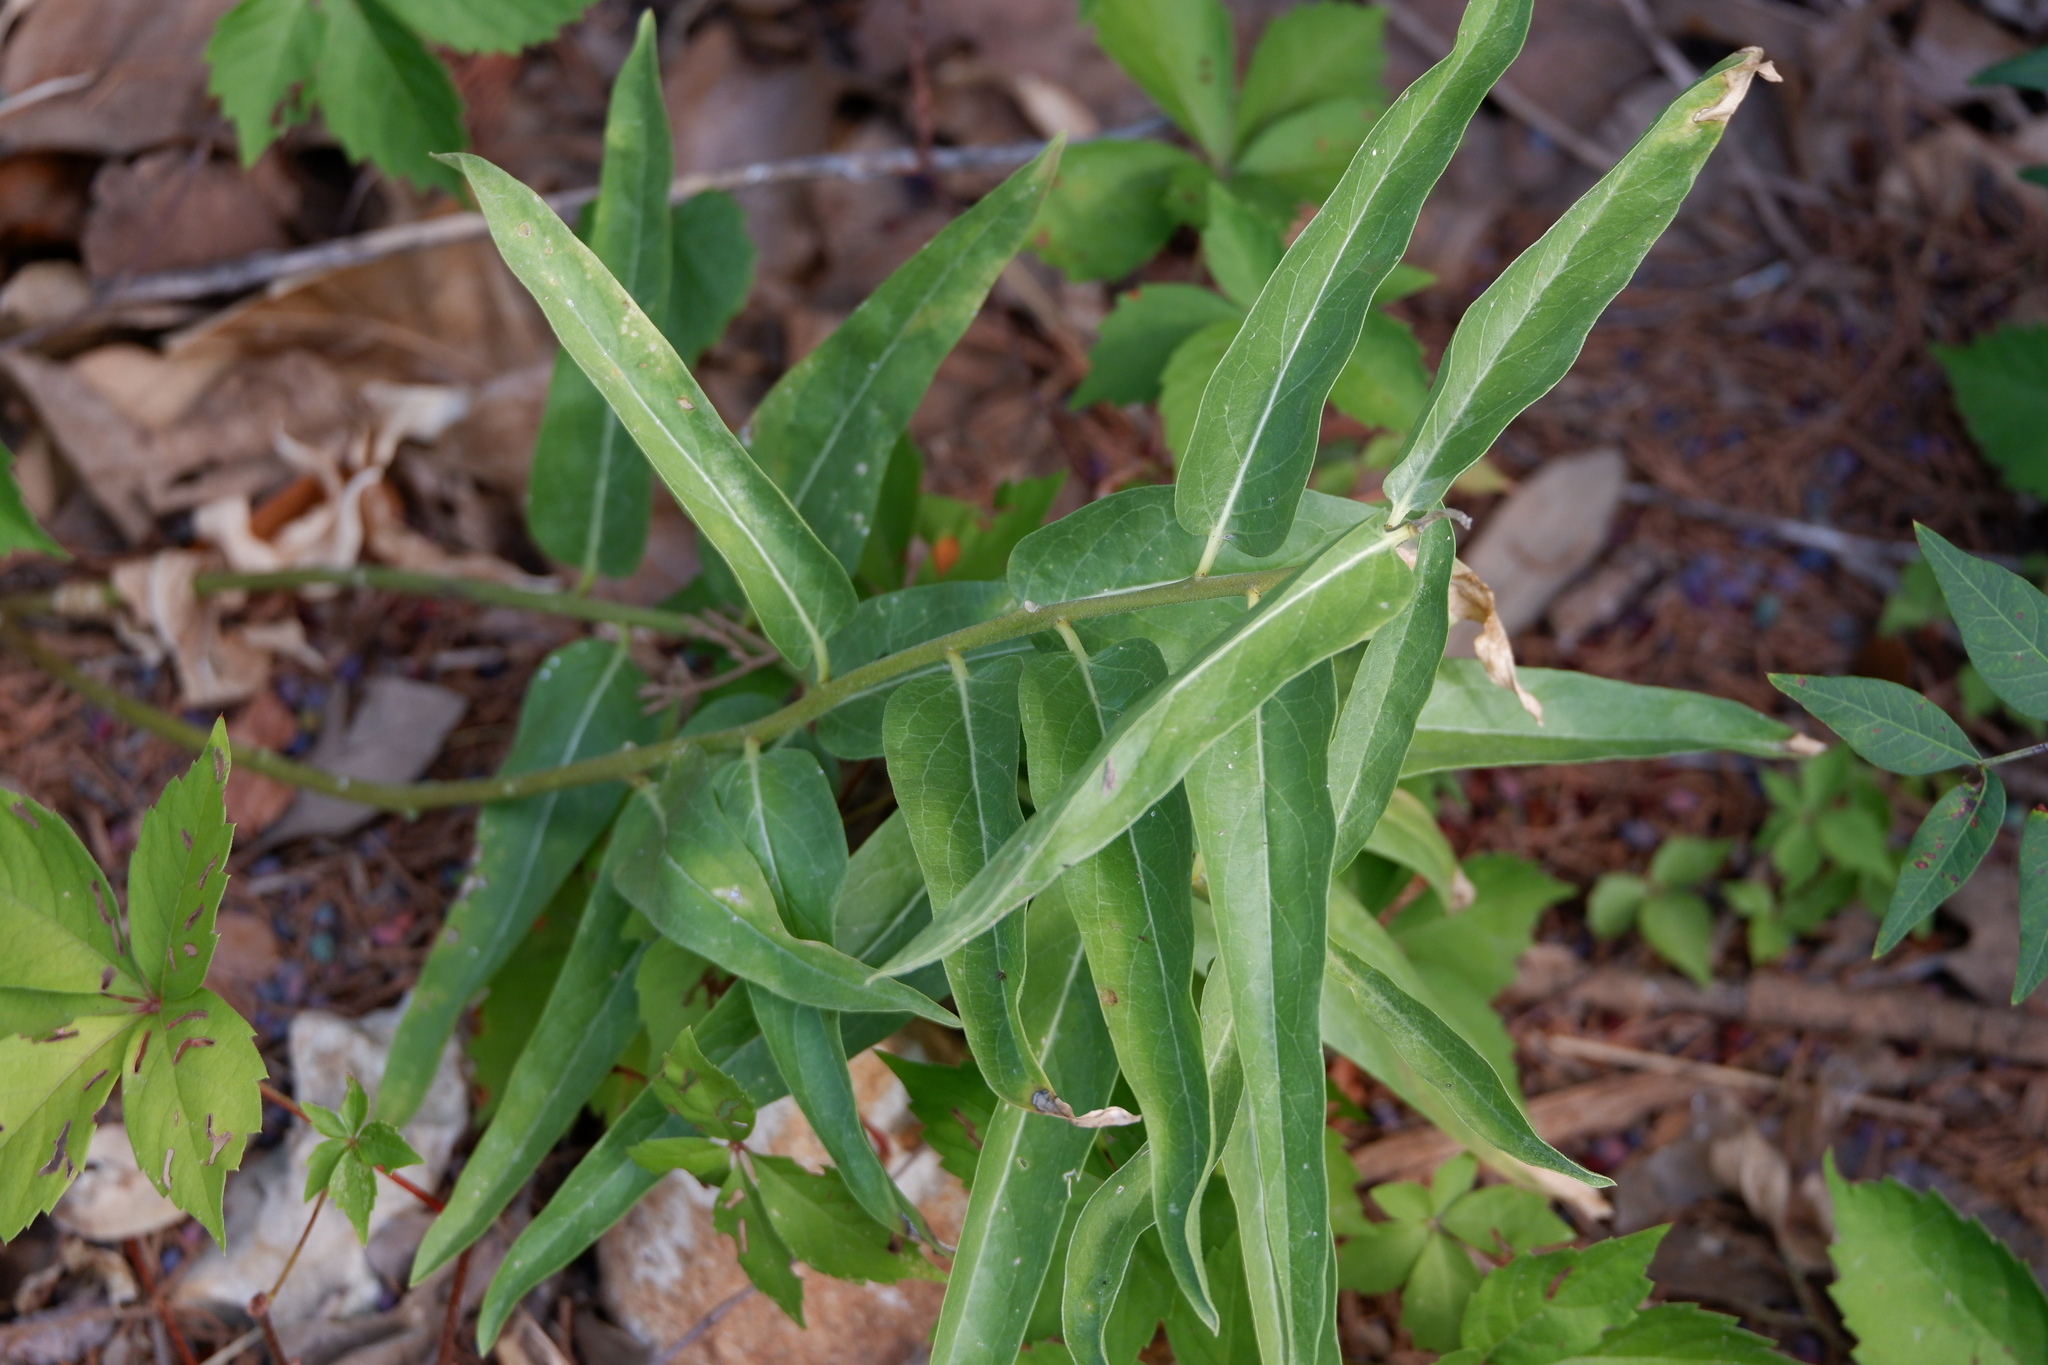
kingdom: Plantae
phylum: Tracheophyta
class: Magnoliopsida
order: Gentianales
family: Apocynaceae
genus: Asclepias
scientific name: Asclepias asperula
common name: Antelope horns
